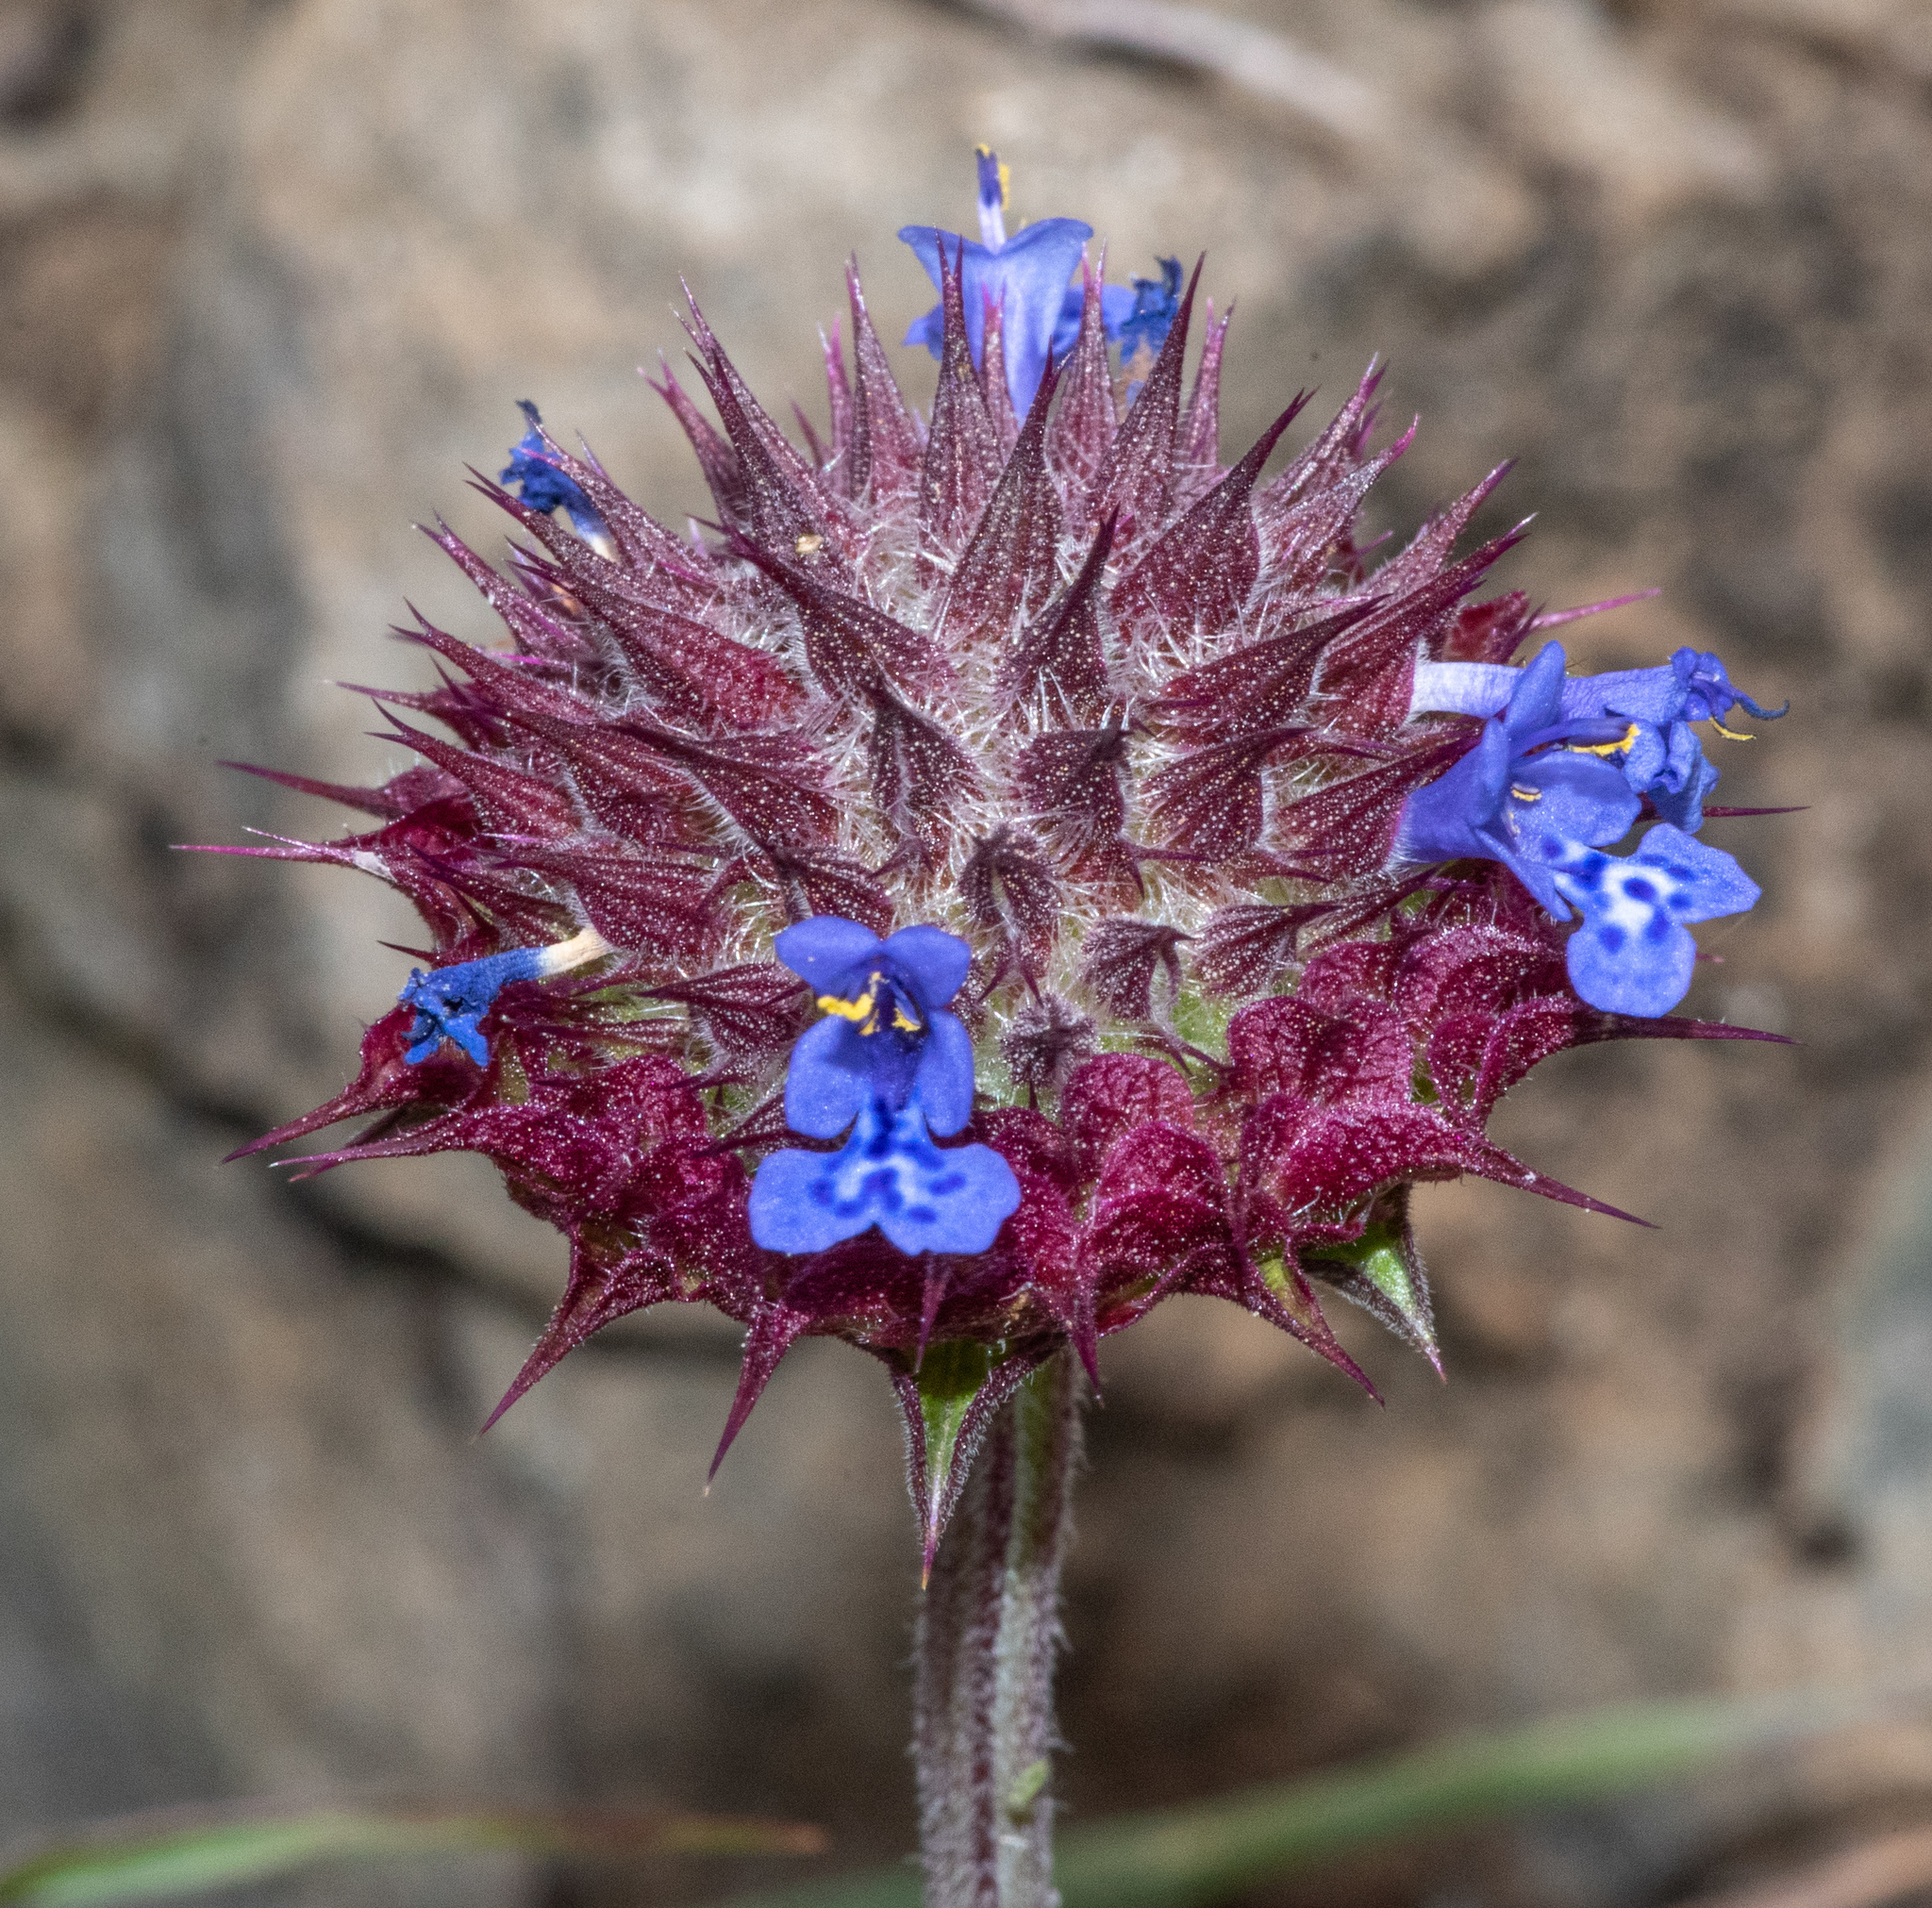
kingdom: Plantae
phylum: Tracheophyta
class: Magnoliopsida
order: Lamiales
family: Lamiaceae
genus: Salvia
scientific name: Salvia columbariae
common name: Chia
